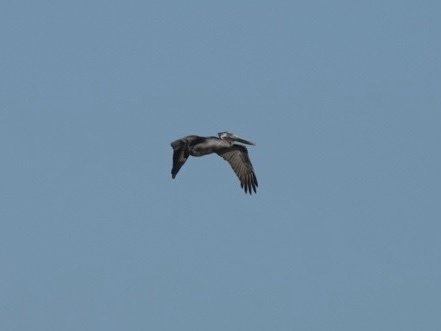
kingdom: Animalia
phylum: Chordata
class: Aves
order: Pelecaniformes
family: Pelecanidae
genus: Pelecanus
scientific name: Pelecanus occidentalis
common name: Brown pelican
